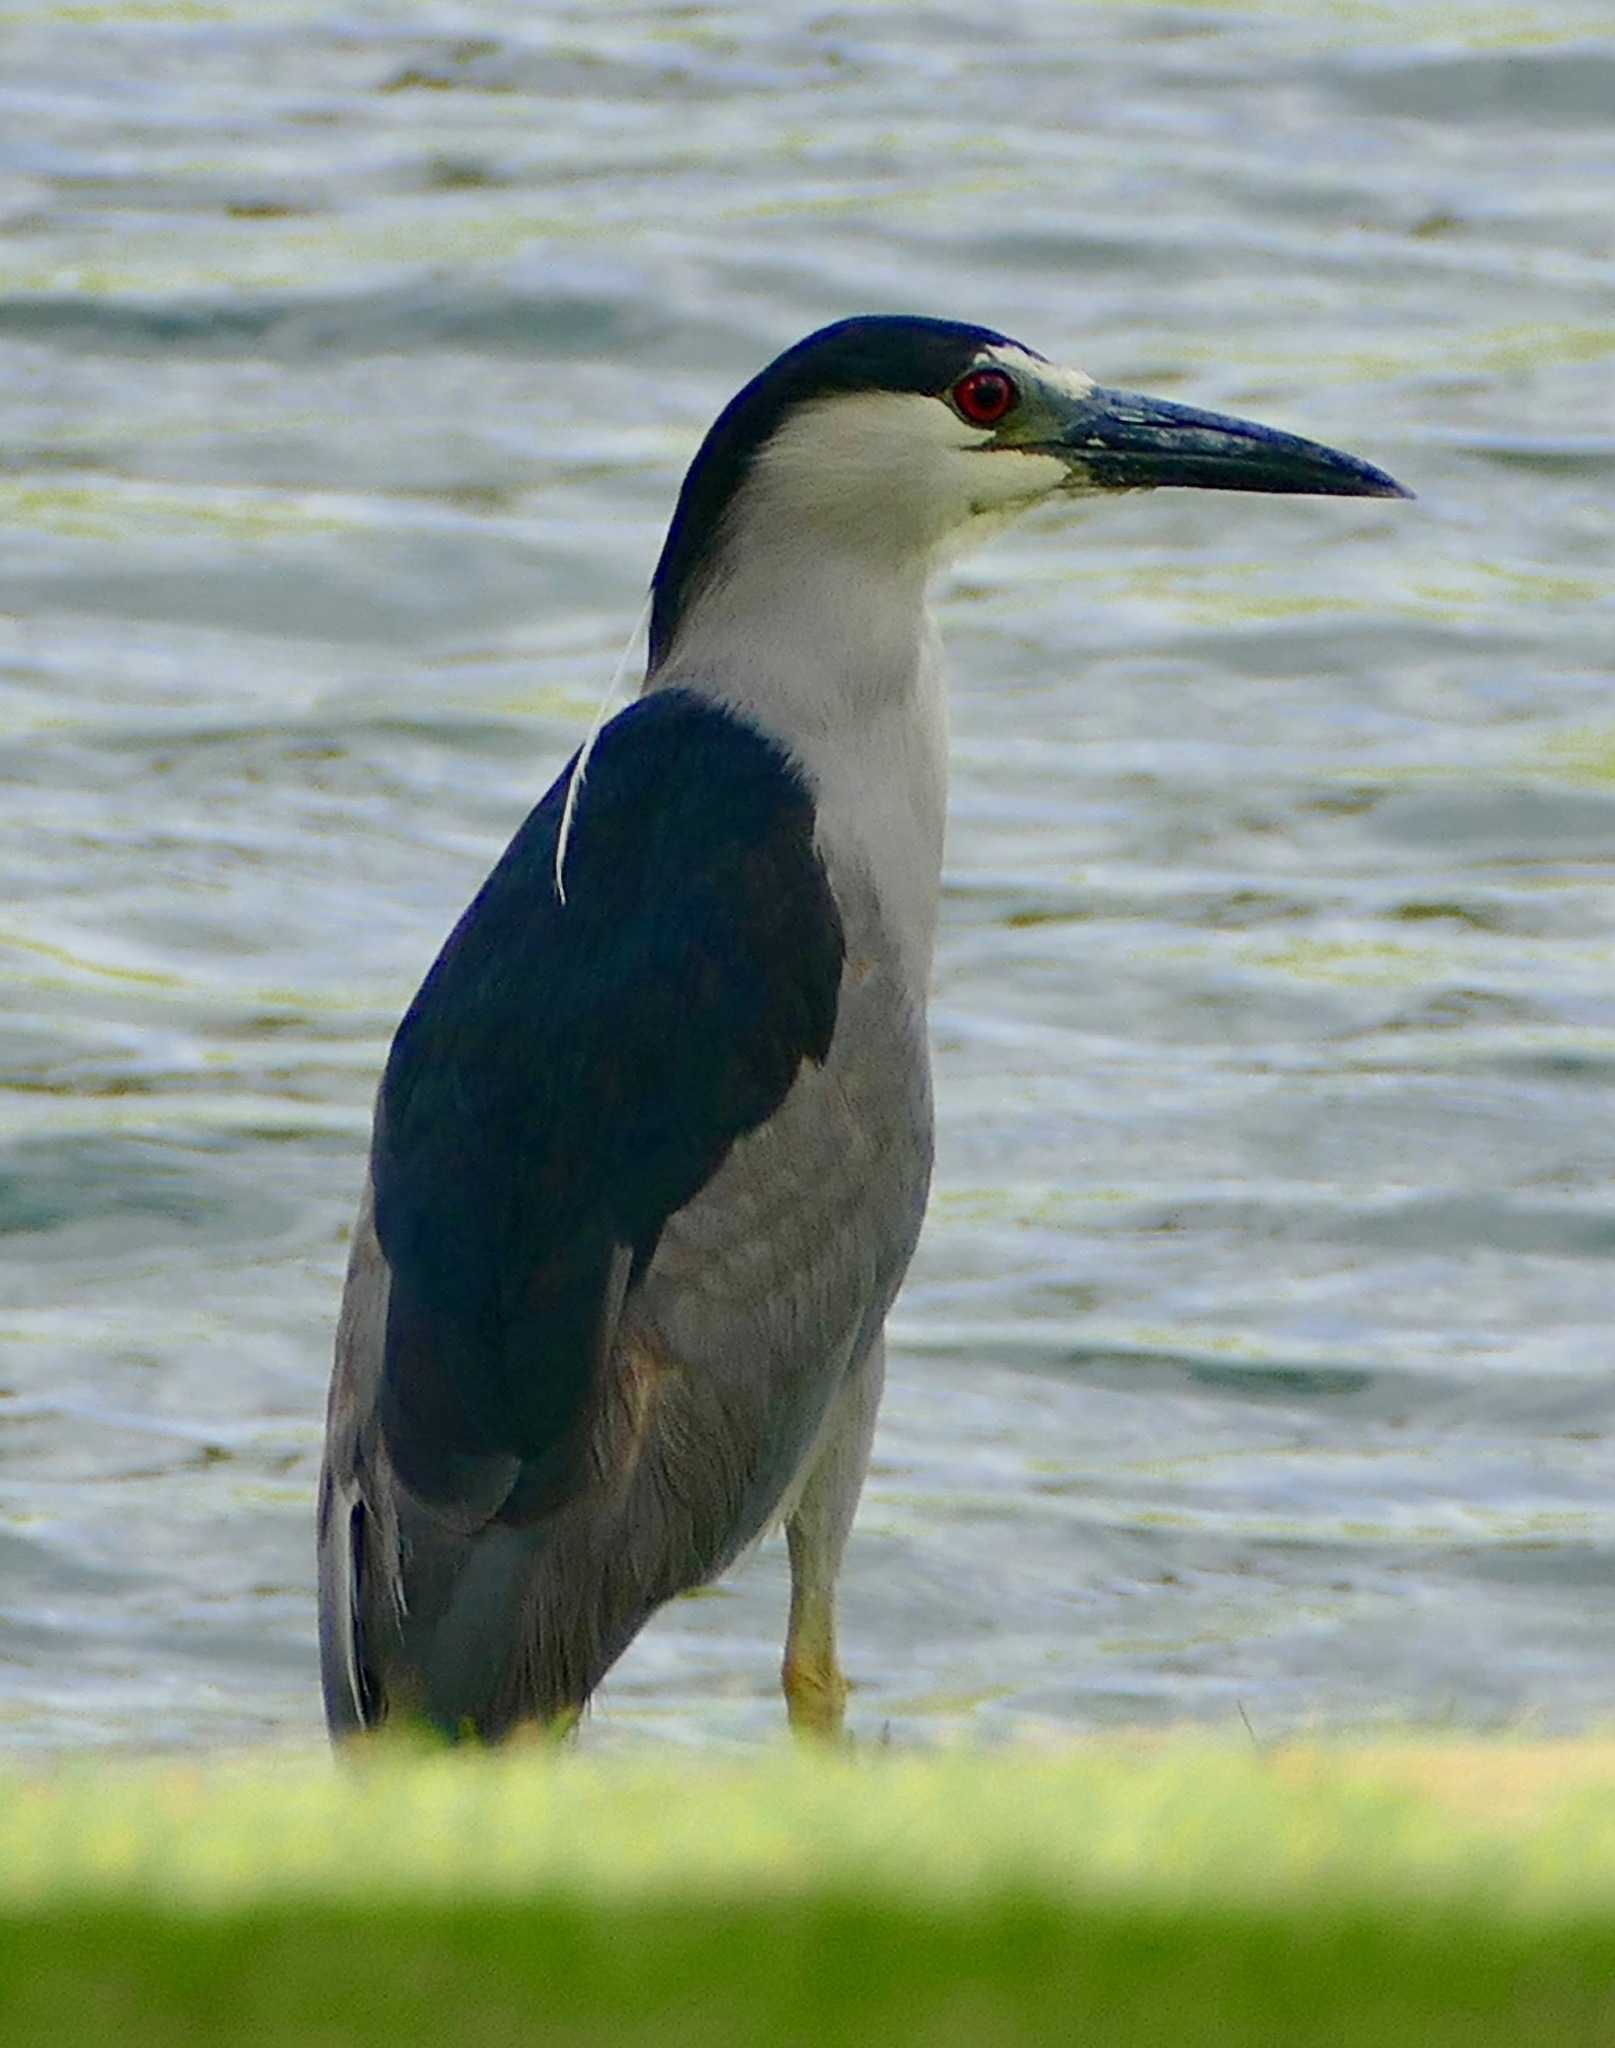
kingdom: Animalia
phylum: Chordata
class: Aves
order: Pelecaniformes
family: Ardeidae
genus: Nycticorax
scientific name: Nycticorax nycticorax
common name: Black-crowned night heron
